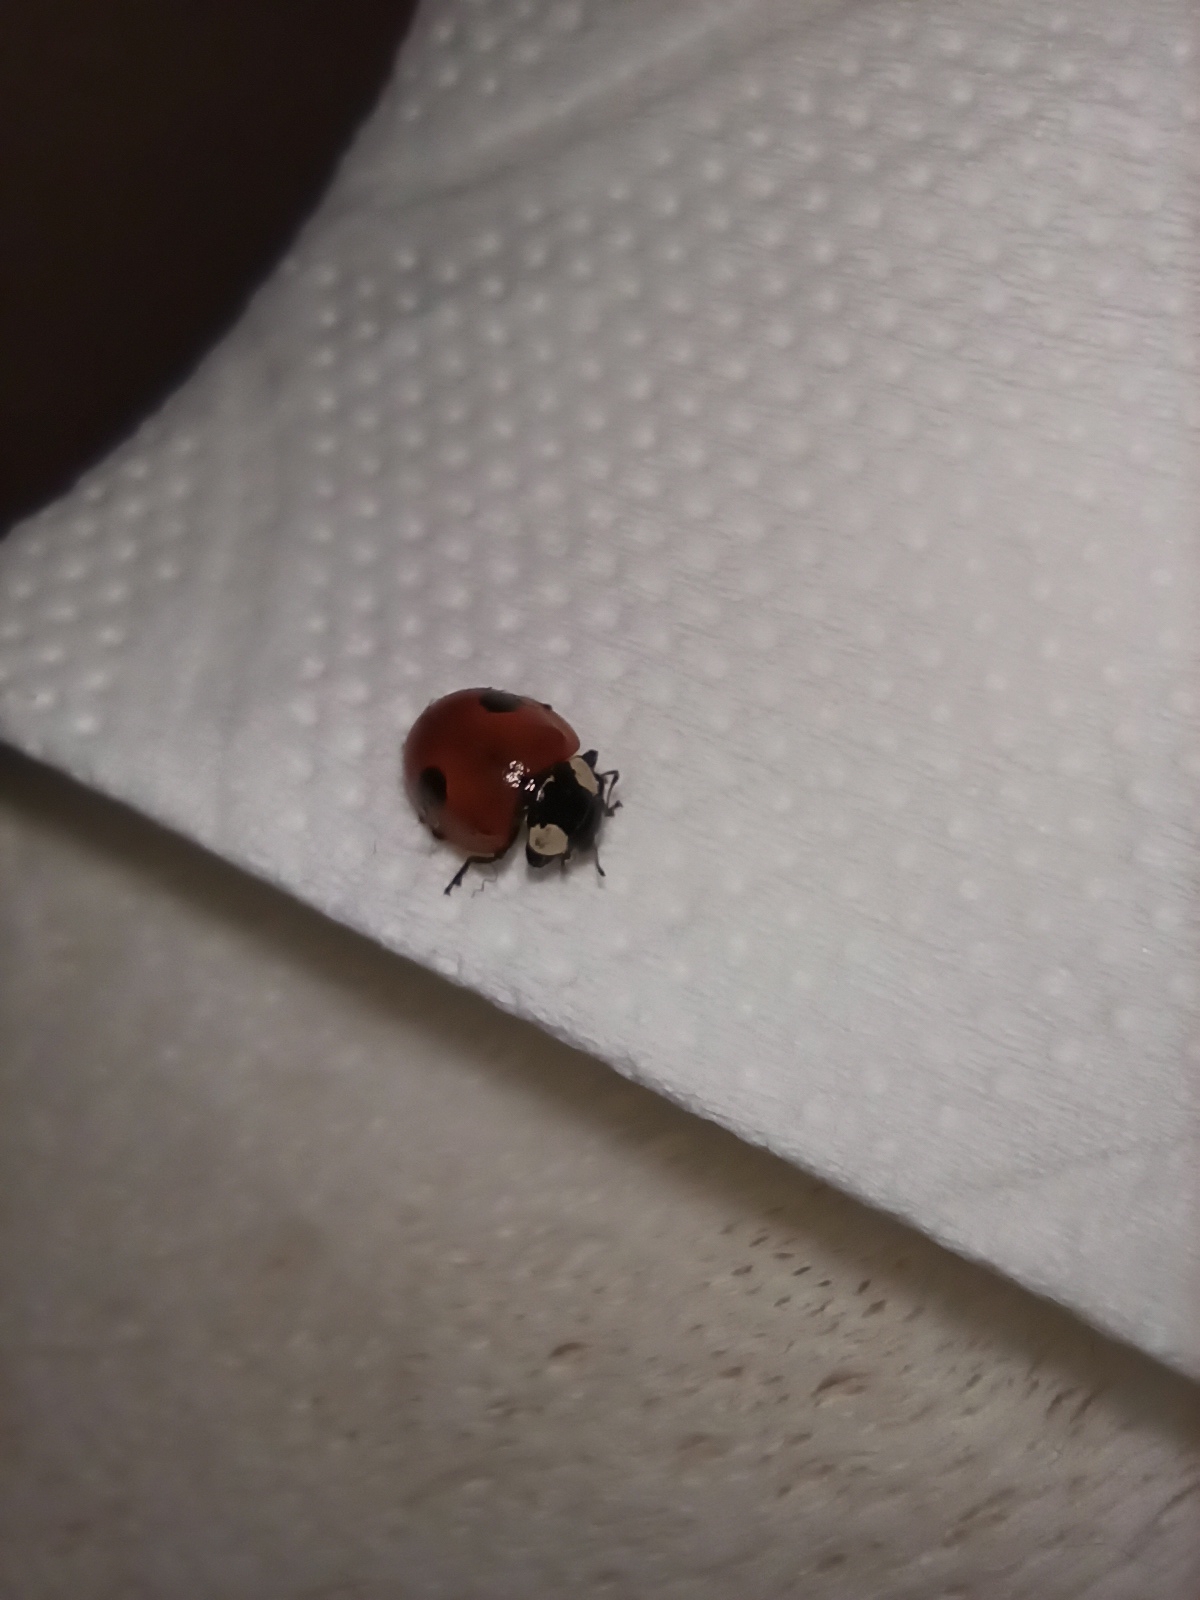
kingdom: Animalia
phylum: Arthropoda
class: Insecta
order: Coleoptera
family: Coccinellidae
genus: Adalia
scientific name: Adalia bipunctata
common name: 2-spot ladybird
